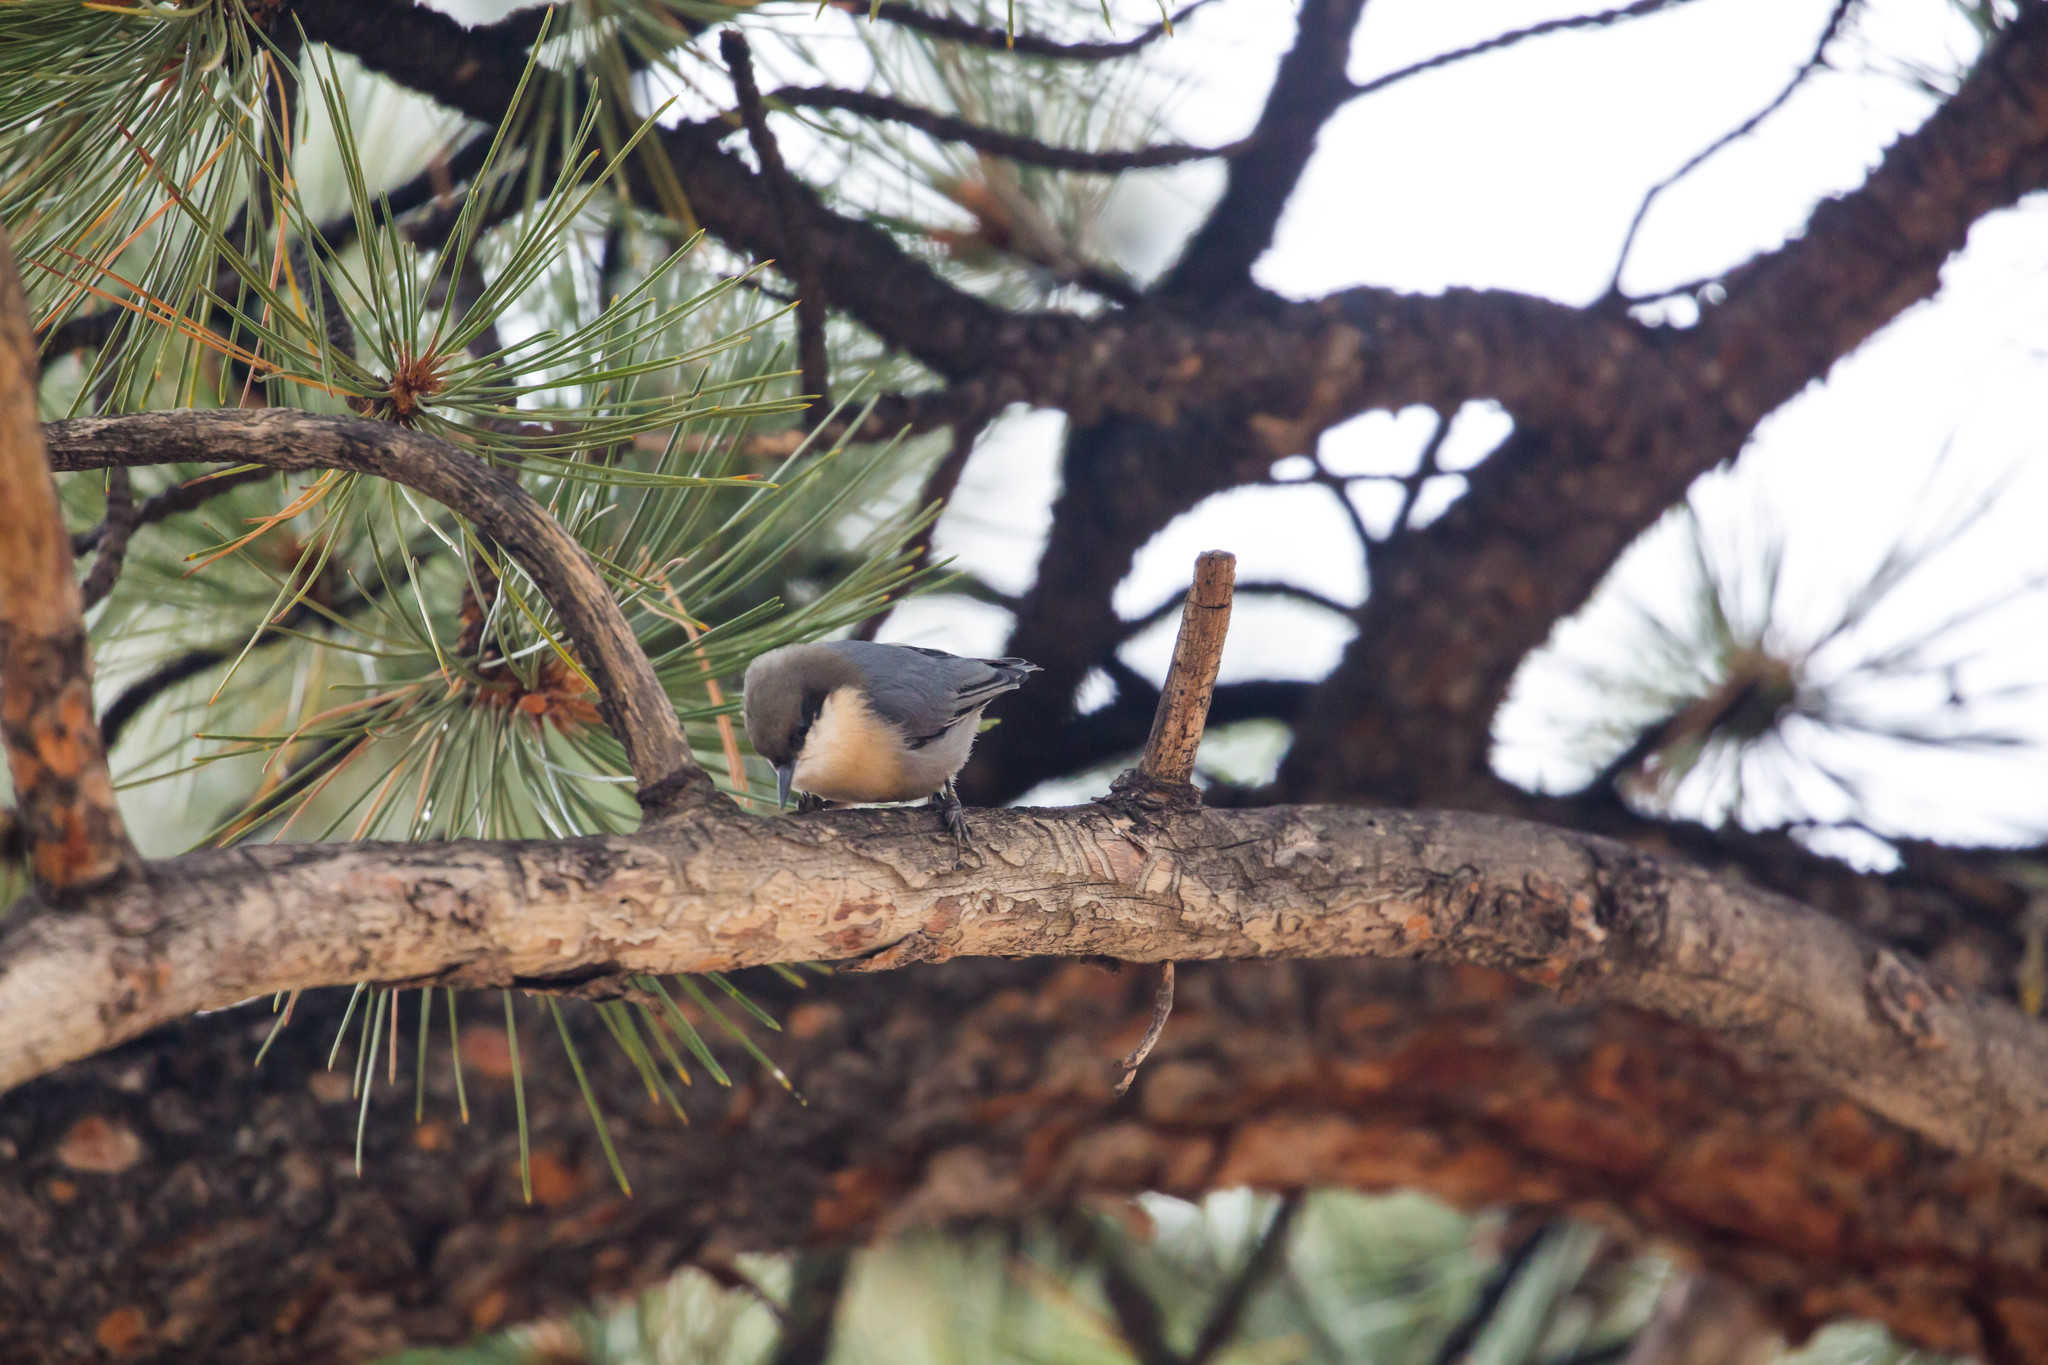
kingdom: Animalia
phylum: Chordata
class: Aves
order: Passeriformes
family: Sittidae
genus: Sitta
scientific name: Sitta pygmaea
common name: Pygmy nuthatch
